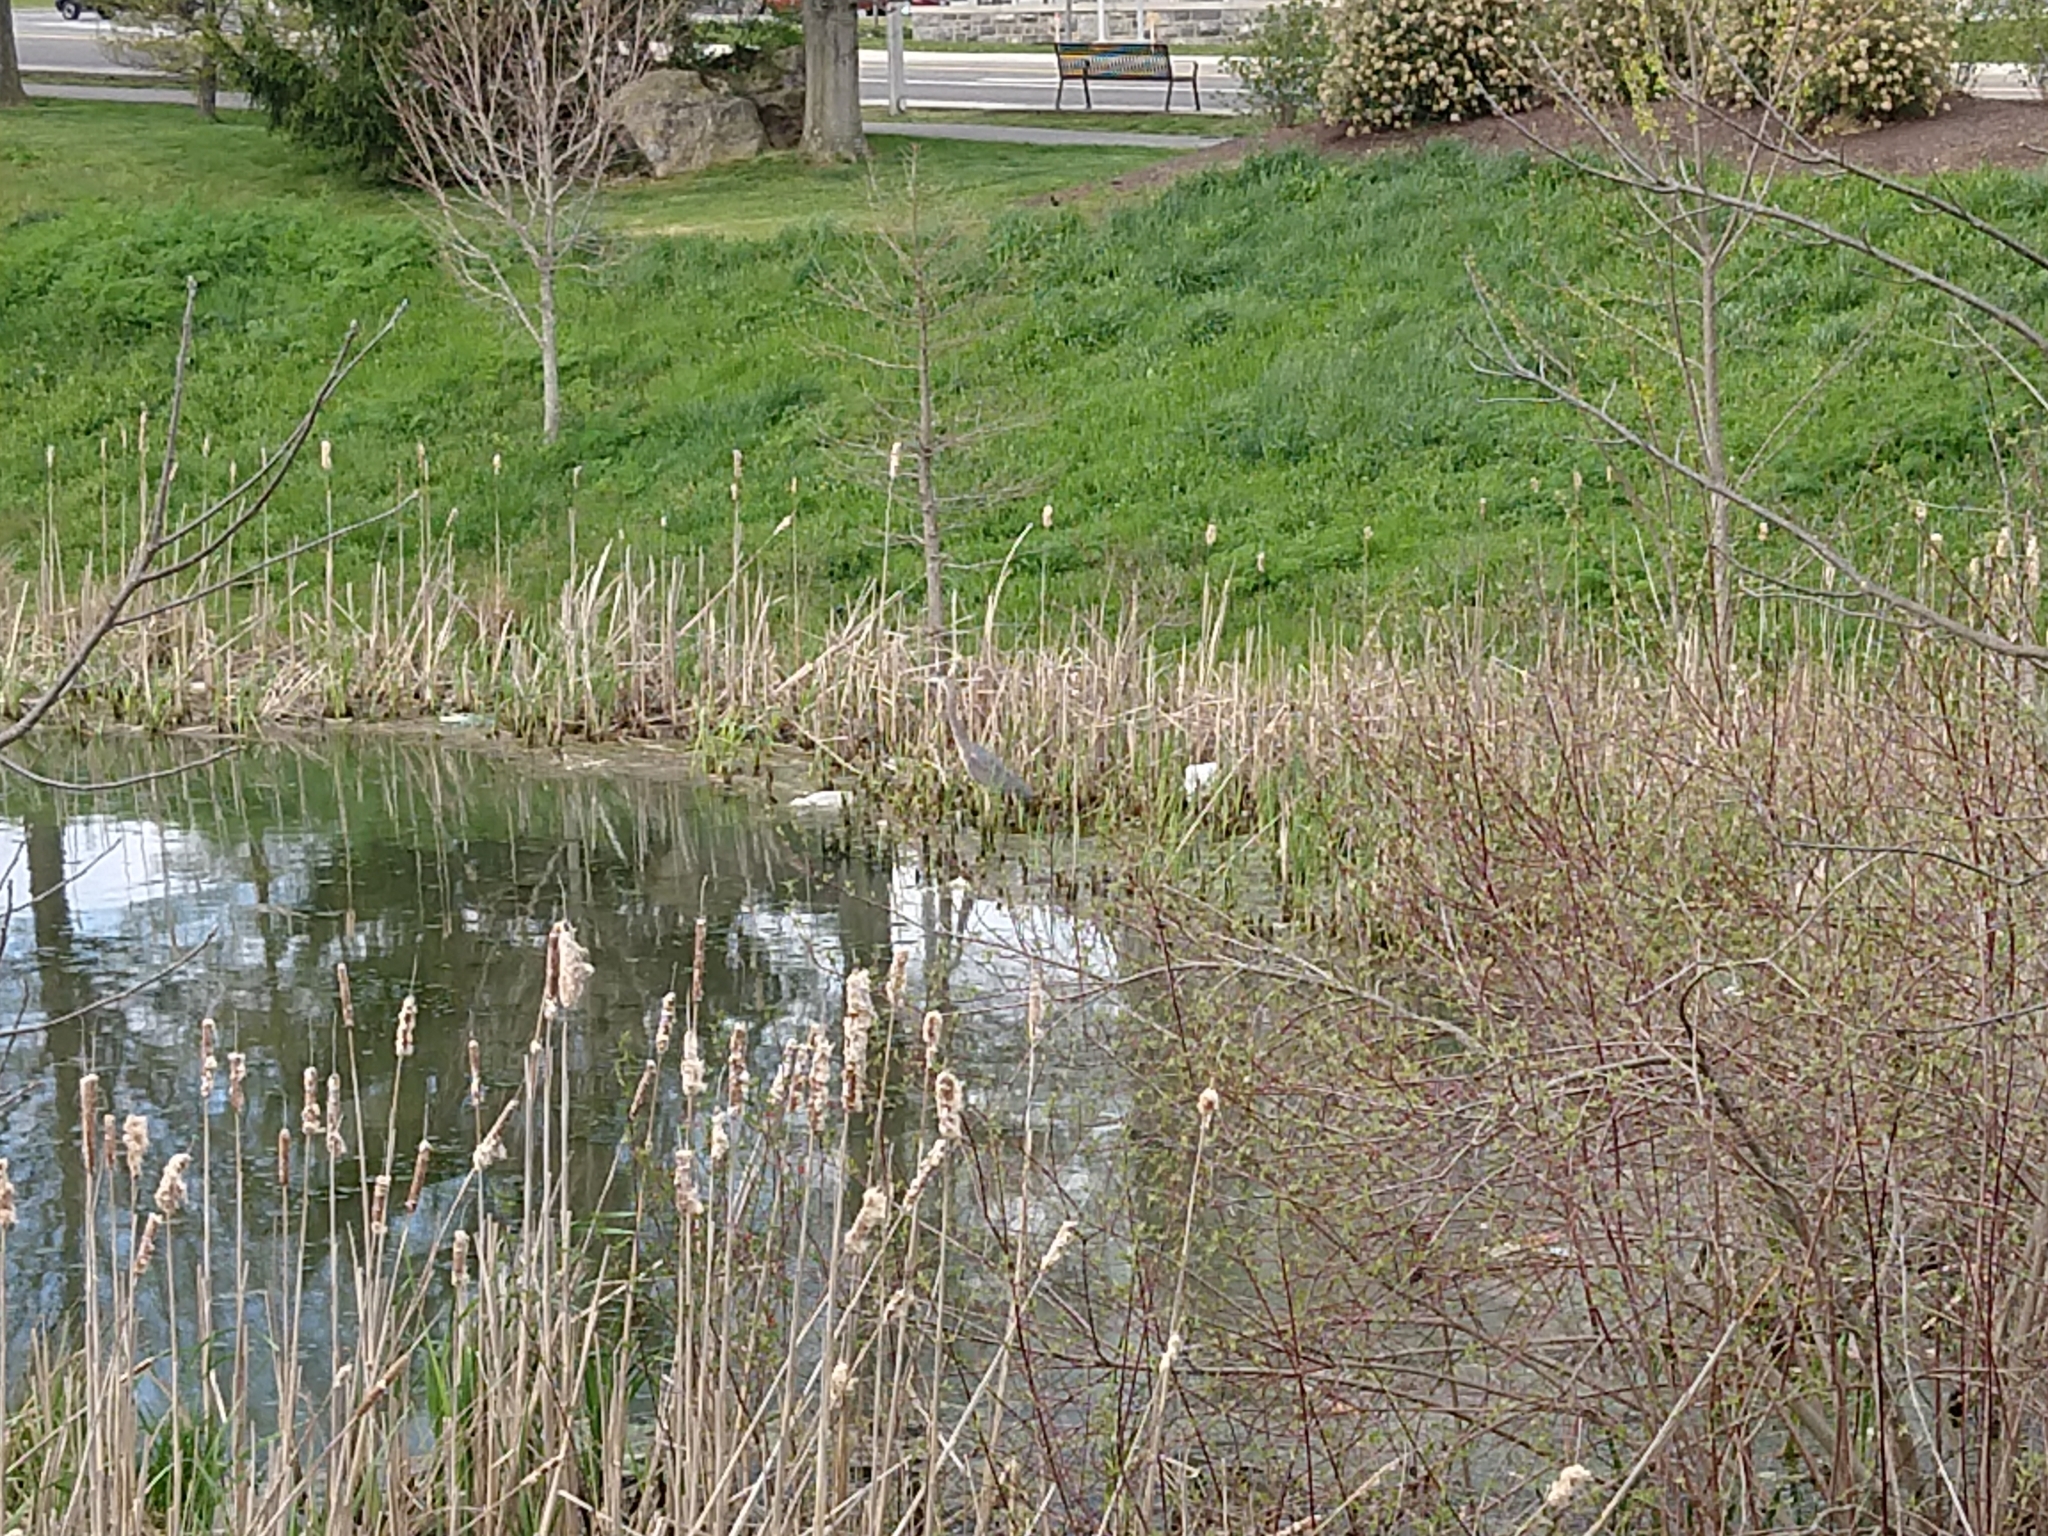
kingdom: Animalia
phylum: Chordata
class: Aves
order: Pelecaniformes
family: Ardeidae
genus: Ardea
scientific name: Ardea herodias
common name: Great blue heron
